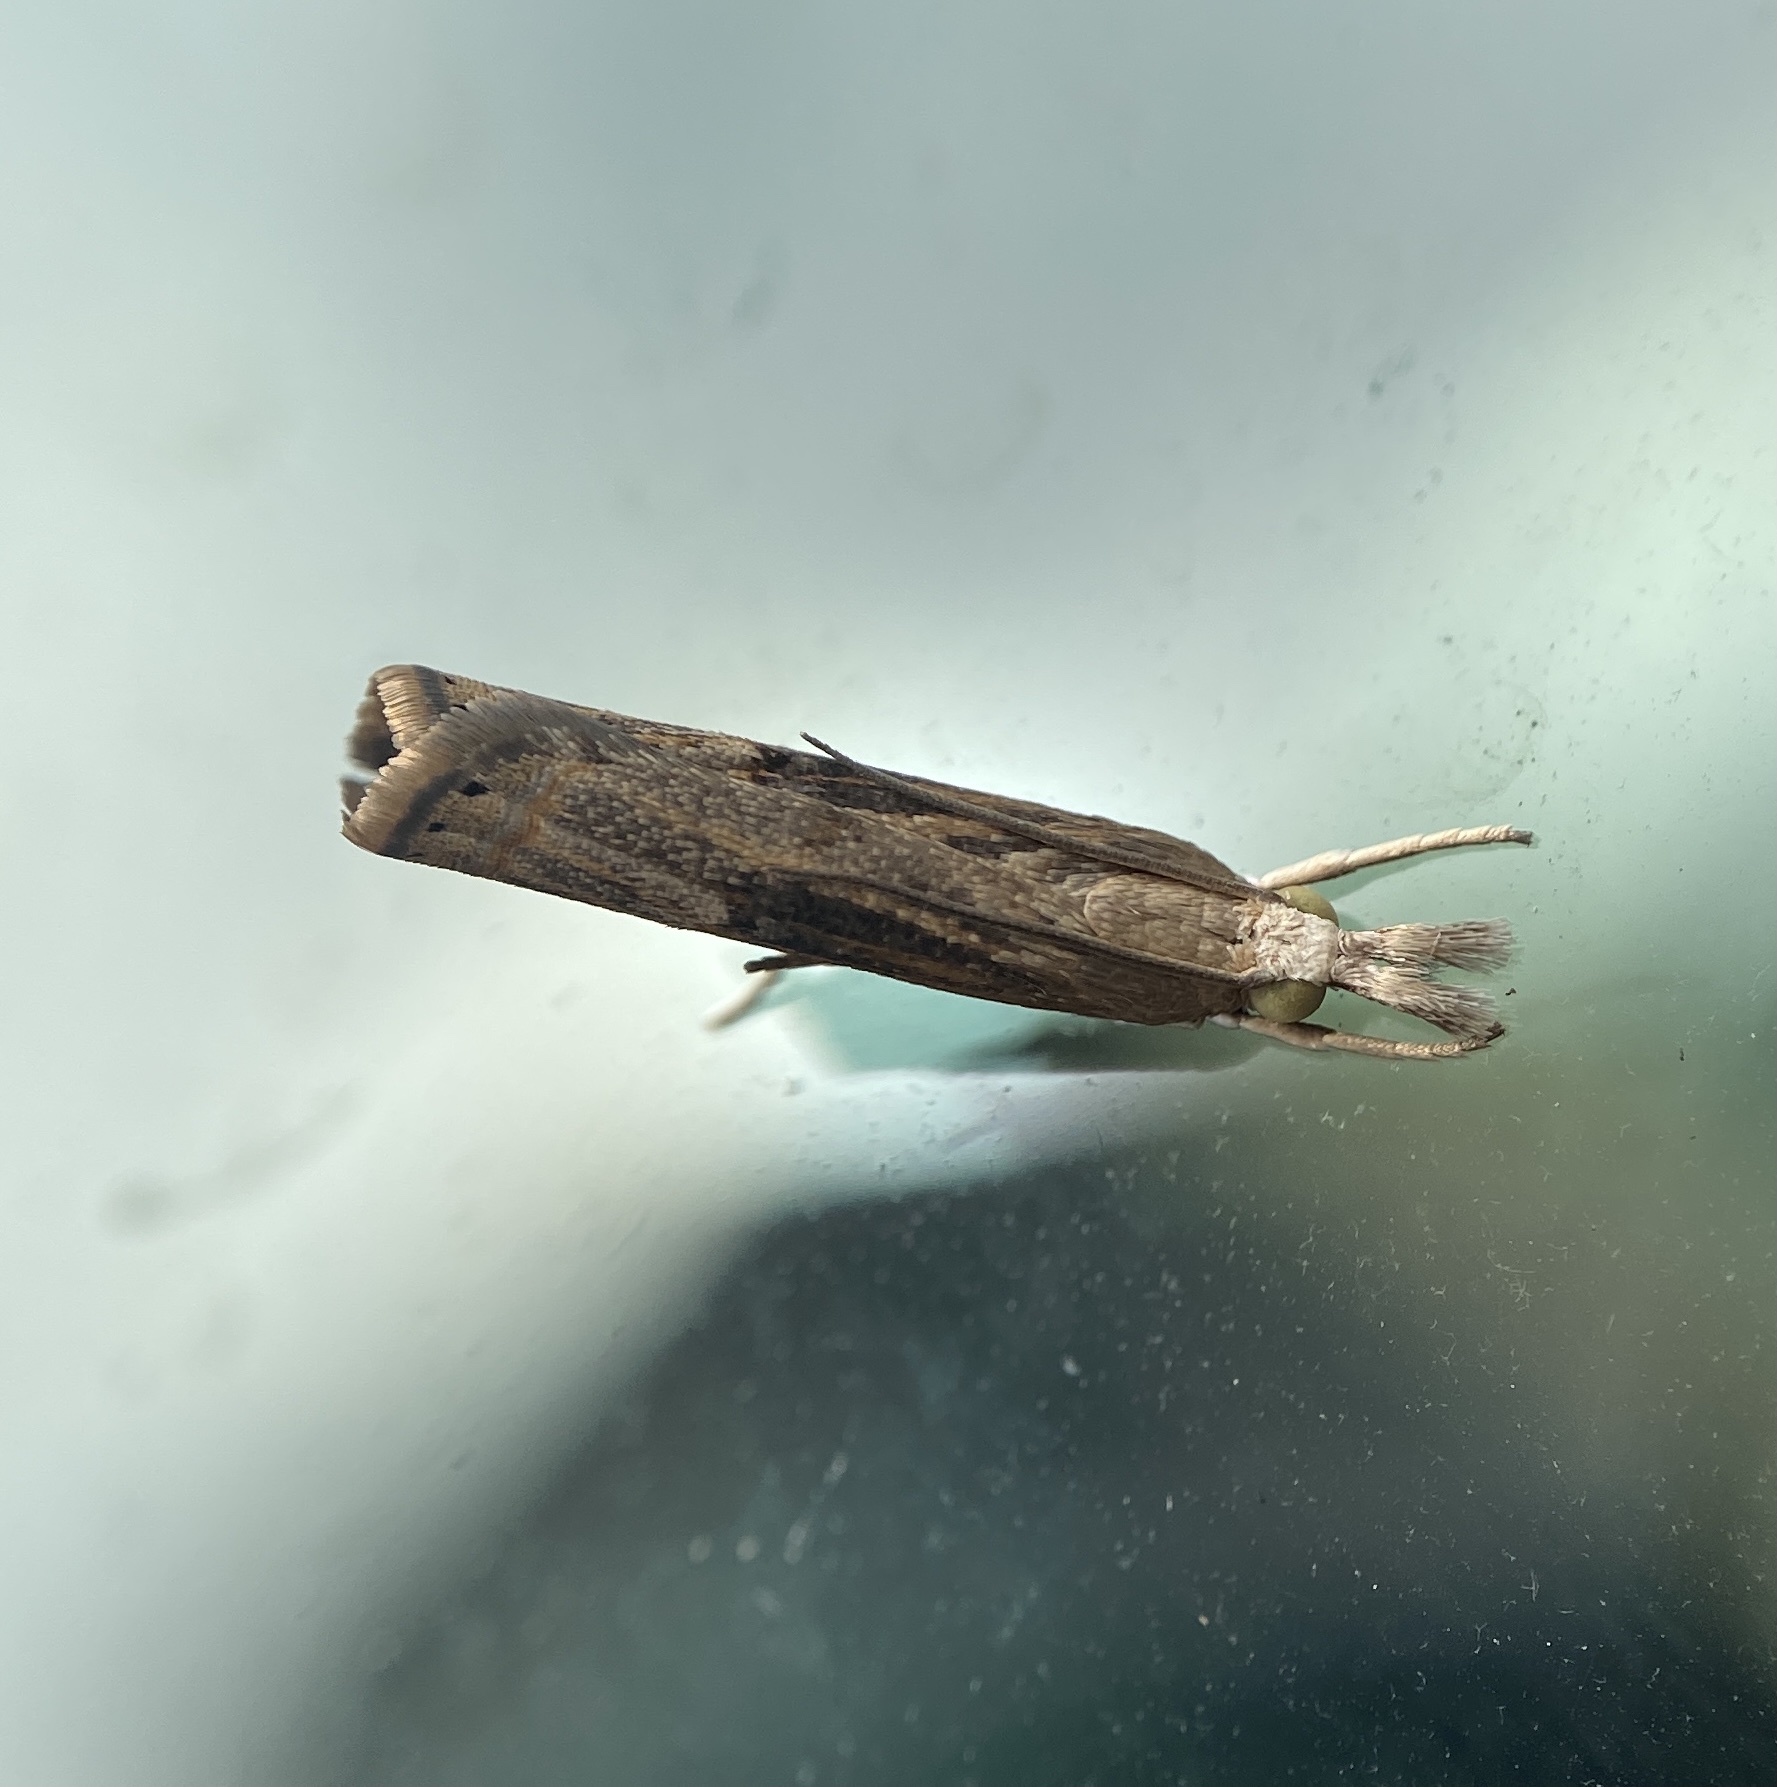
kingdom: Animalia
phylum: Arthropoda
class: Insecta
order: Lepidoptera
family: Crambidae
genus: Parapediasia
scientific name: Parapediasia teterellus
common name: Bluegrass webworm moth
